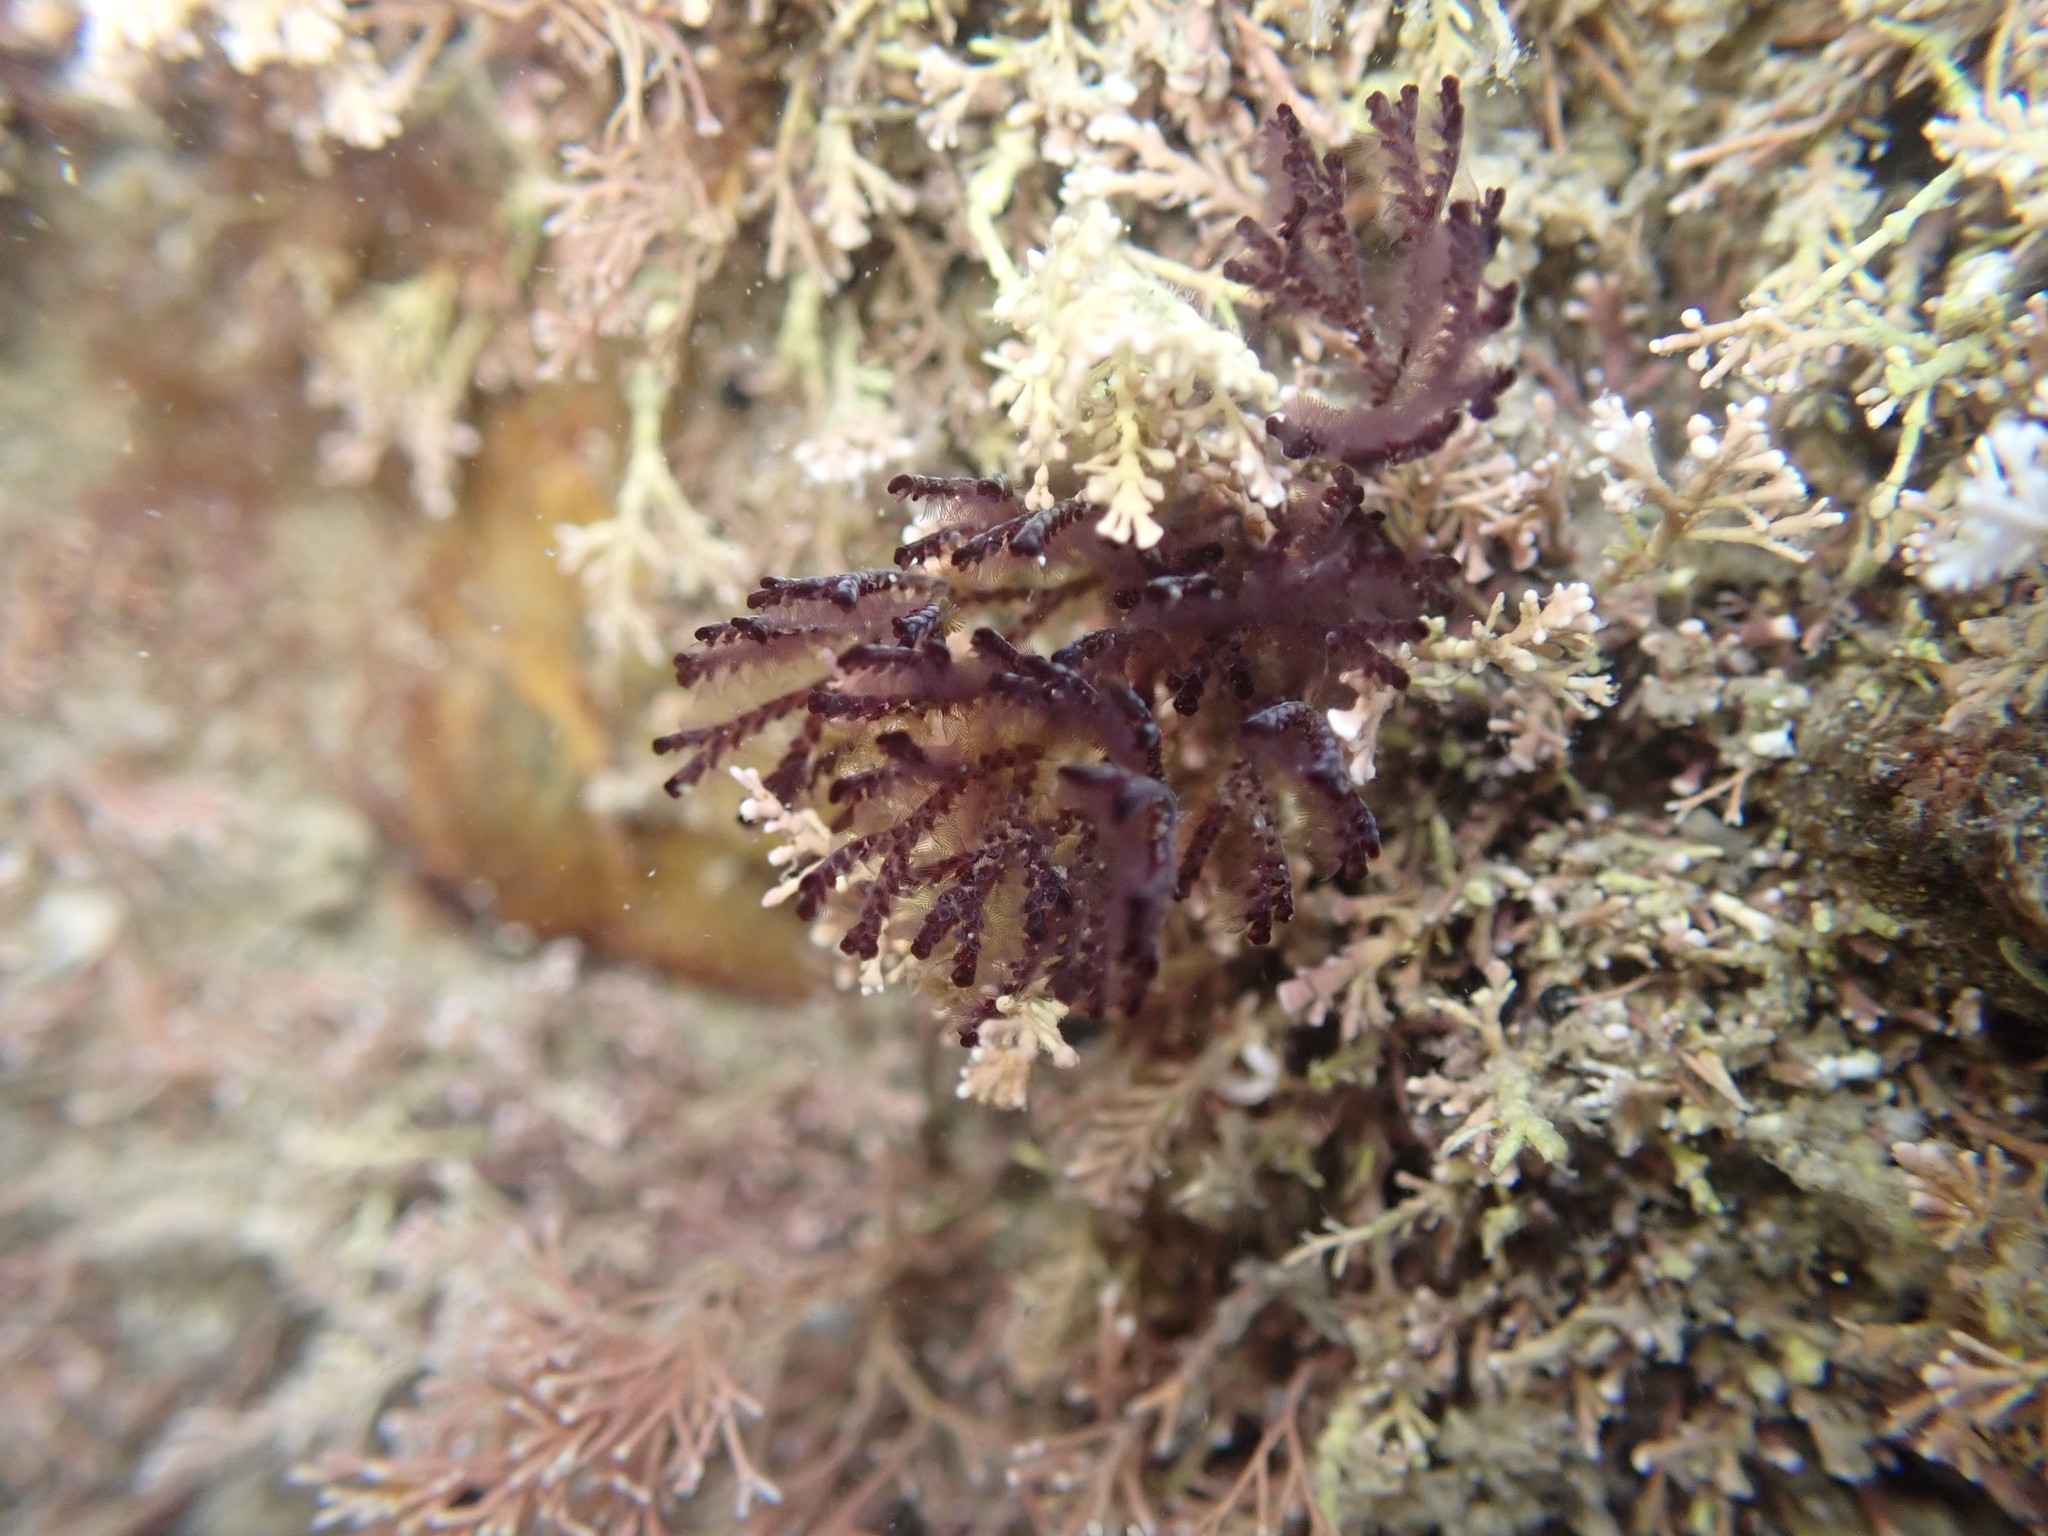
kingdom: Animalia
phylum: Bryozoa
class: Gymnolaemata
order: Cheilostomatida
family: Bugulidae
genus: Bugula
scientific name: Bugula neritina
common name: Brown bryozoan
